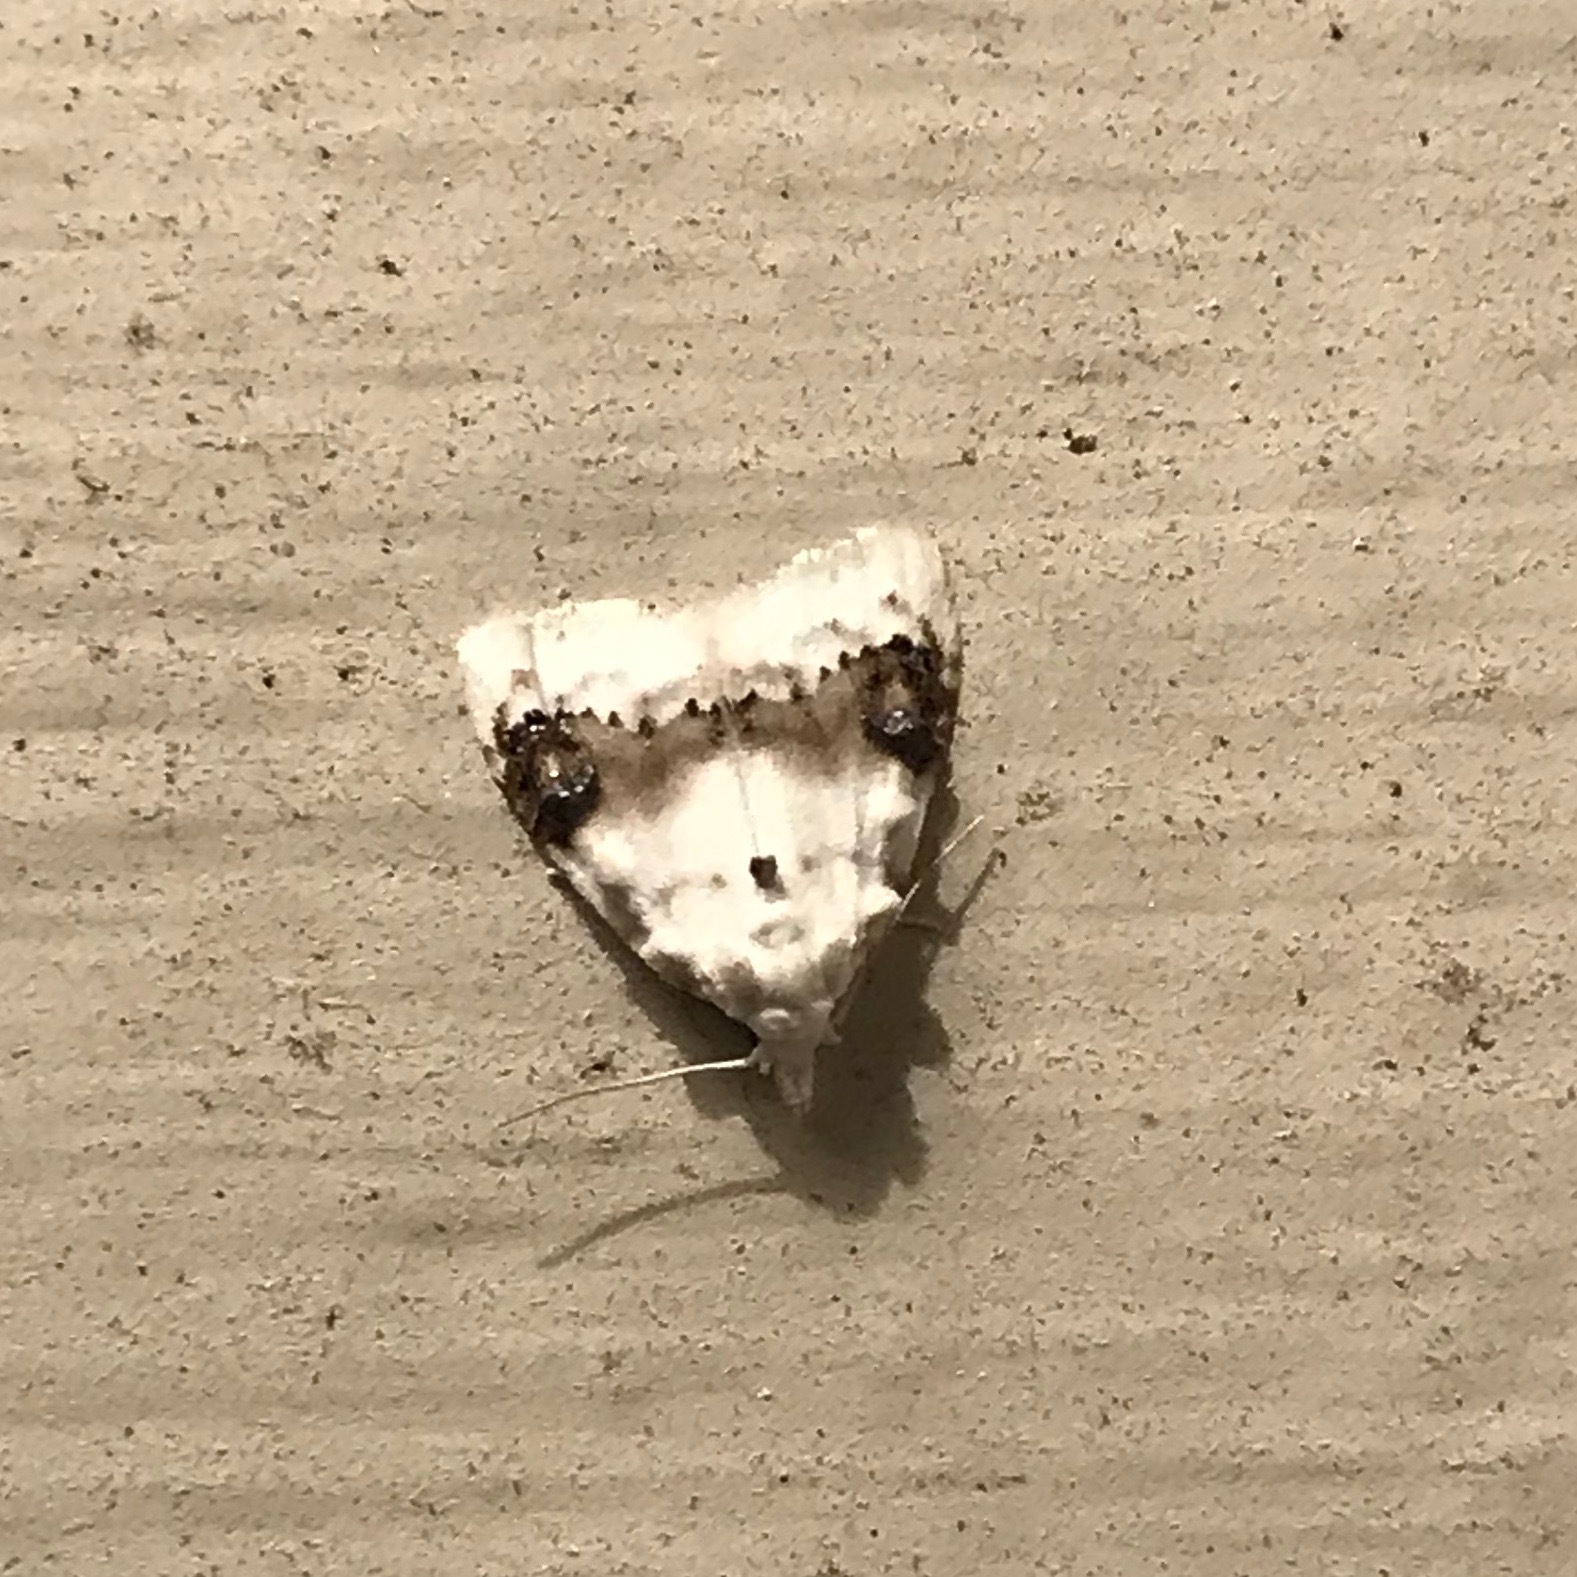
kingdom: Animalia
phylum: Arthropoda
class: Insecta
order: Lepidoptera
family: Nolidae
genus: Nola
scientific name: Nola cilicoides
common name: Blurry-patched nola moth
